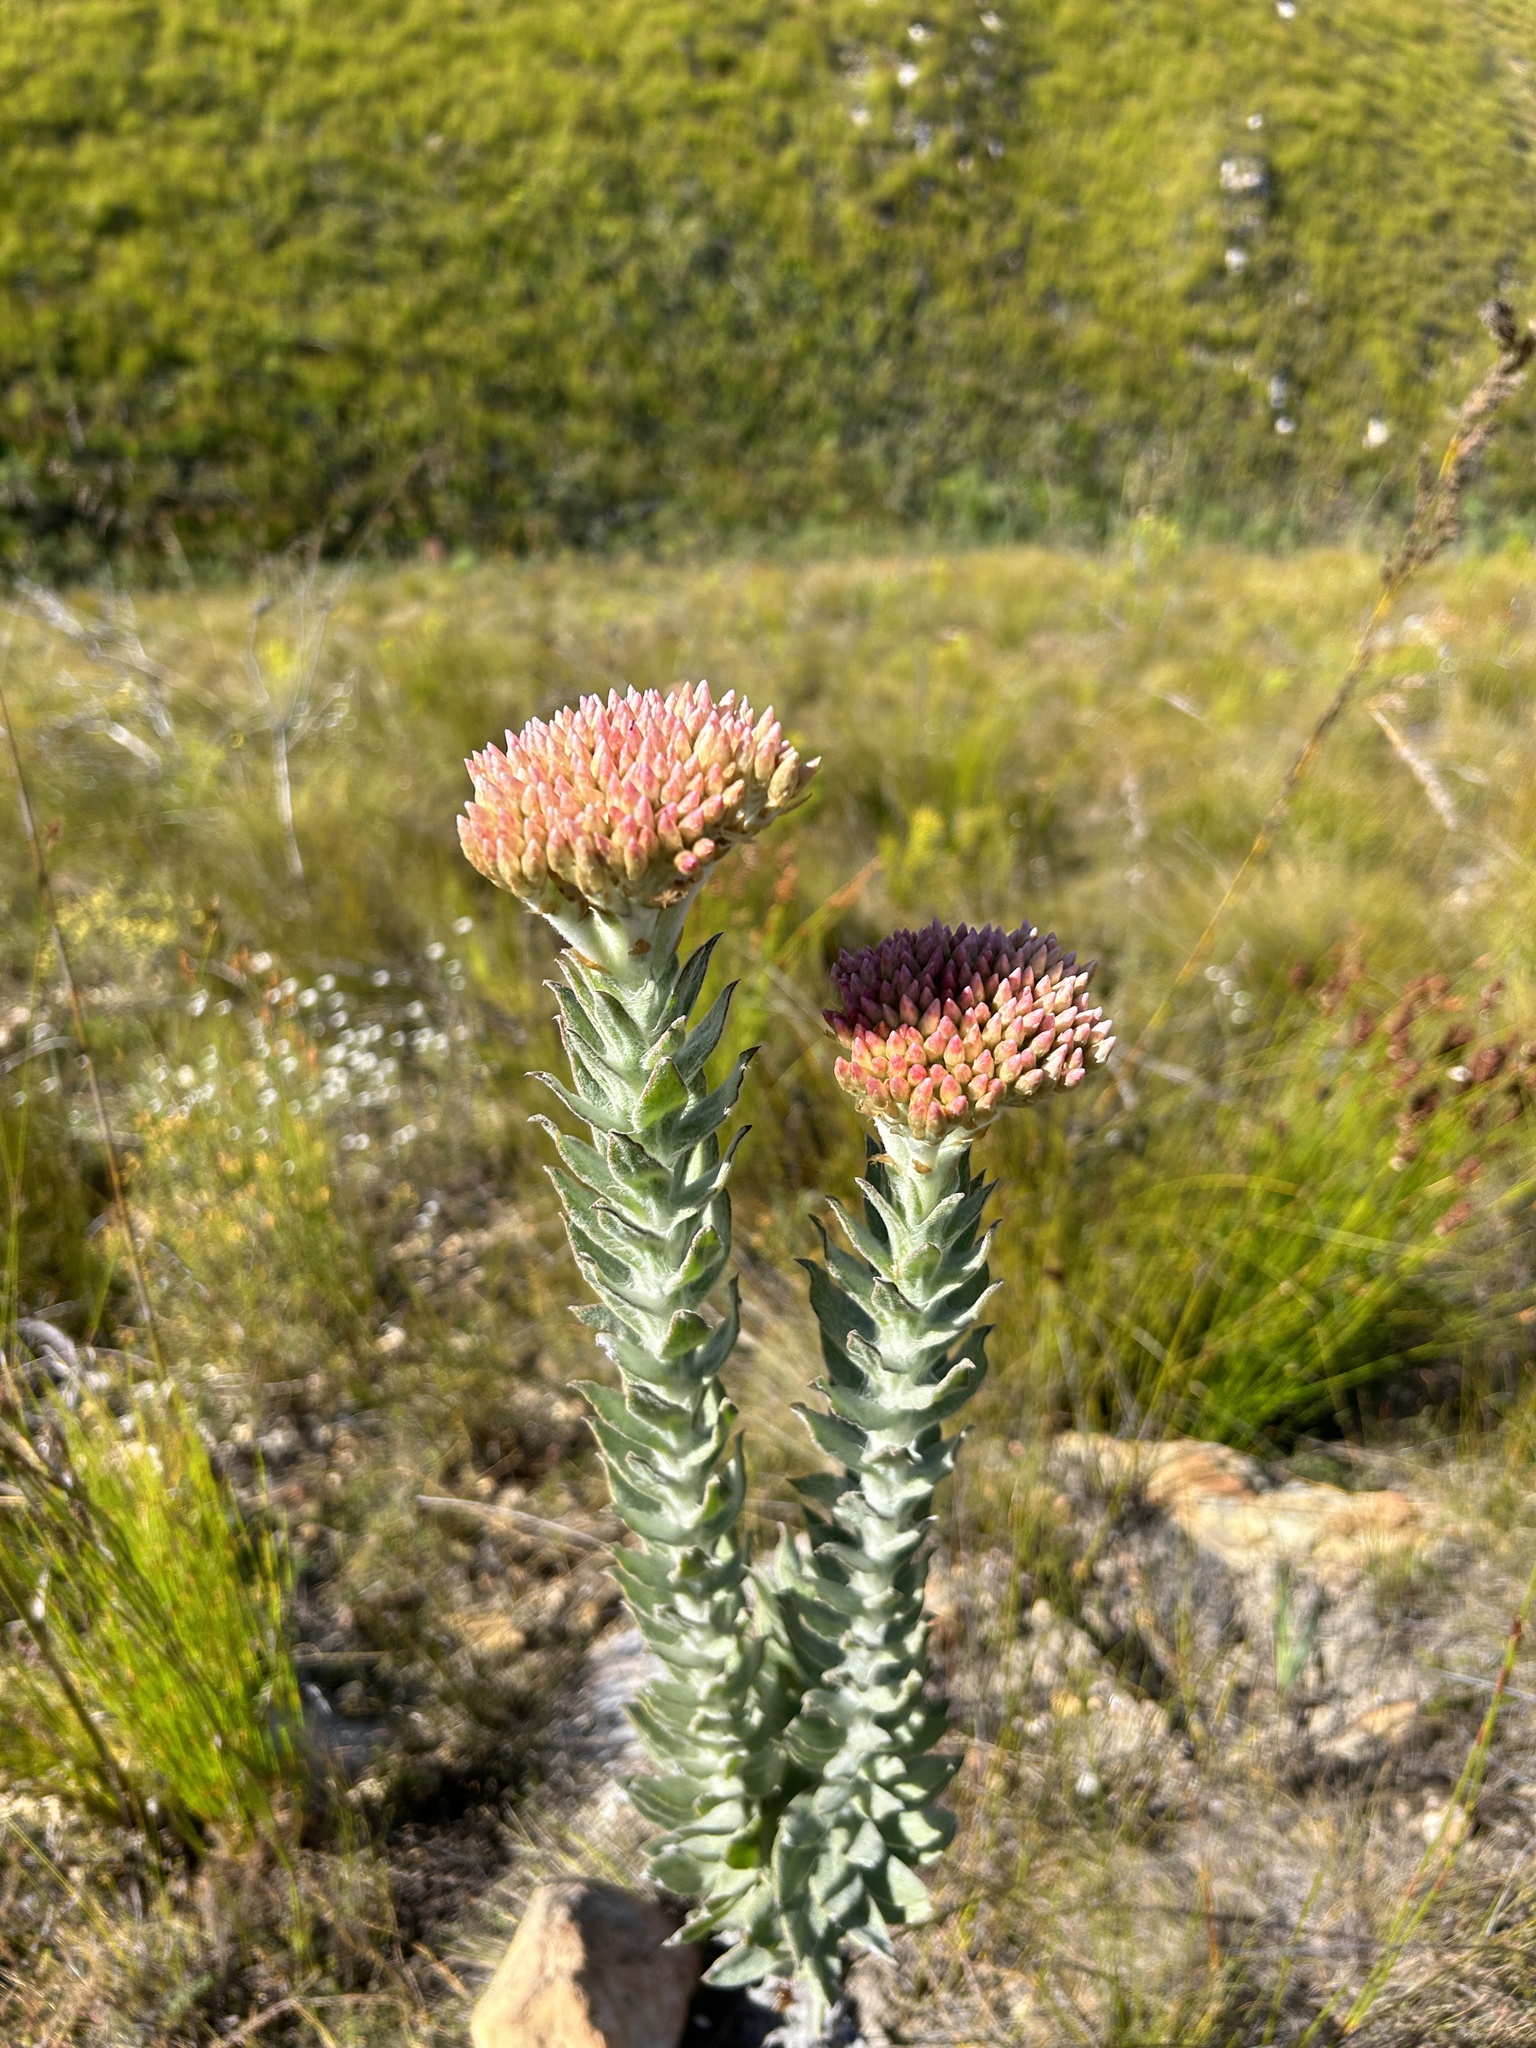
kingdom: Plantae
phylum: Tracheophyta
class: Magnoliopsida
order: Asterales
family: Asteraceae
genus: Syncarpha
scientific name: Syncarpha milleflora
